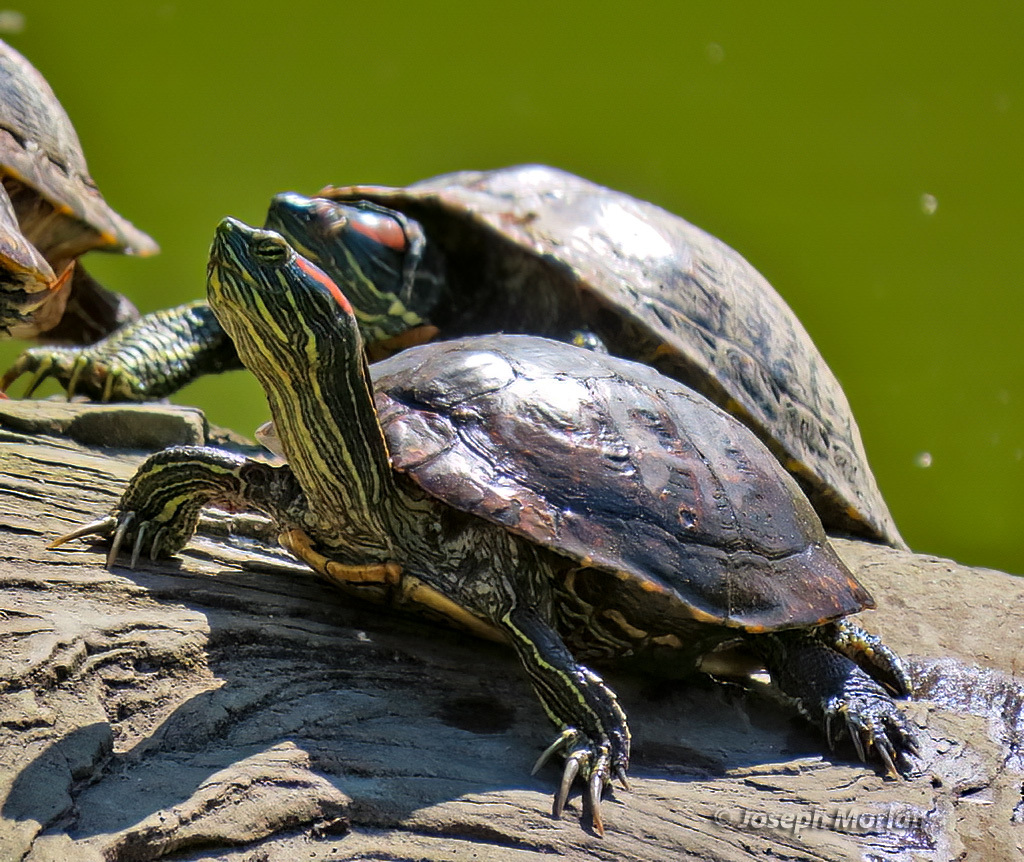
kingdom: Animalia
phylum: Chordata
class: Testudines
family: Emydidae
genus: Trachemys
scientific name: Trachemys scripta
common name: Slider
